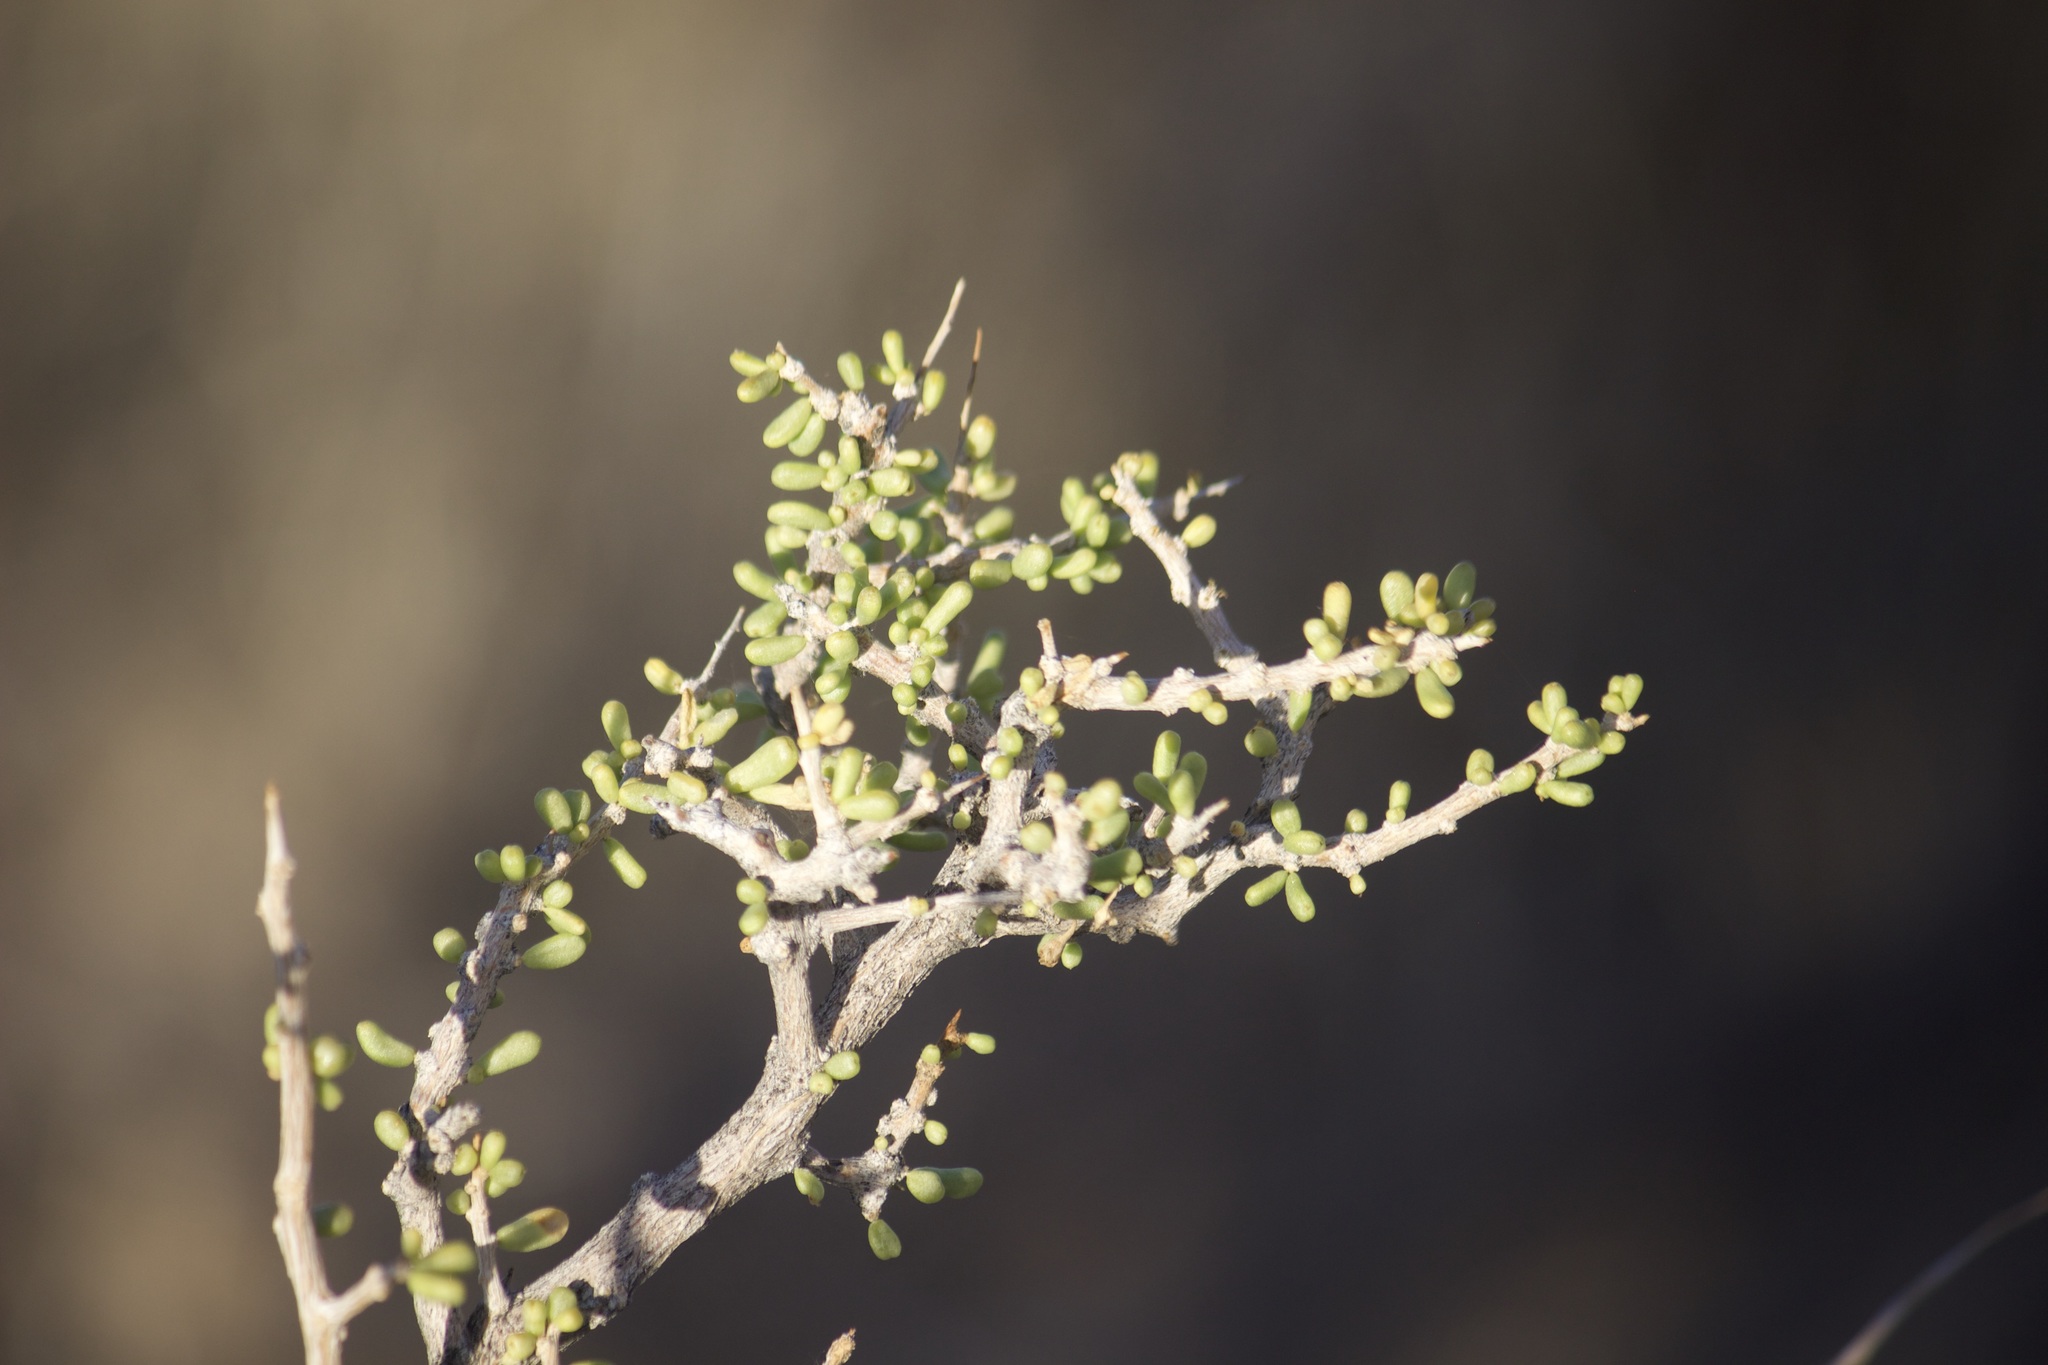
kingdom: Plantae
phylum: Tracheophyta
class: Magnoliopsida
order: Solanales
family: Solanaceae
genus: Lycium
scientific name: Lycium andersonii
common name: Water-jacket
